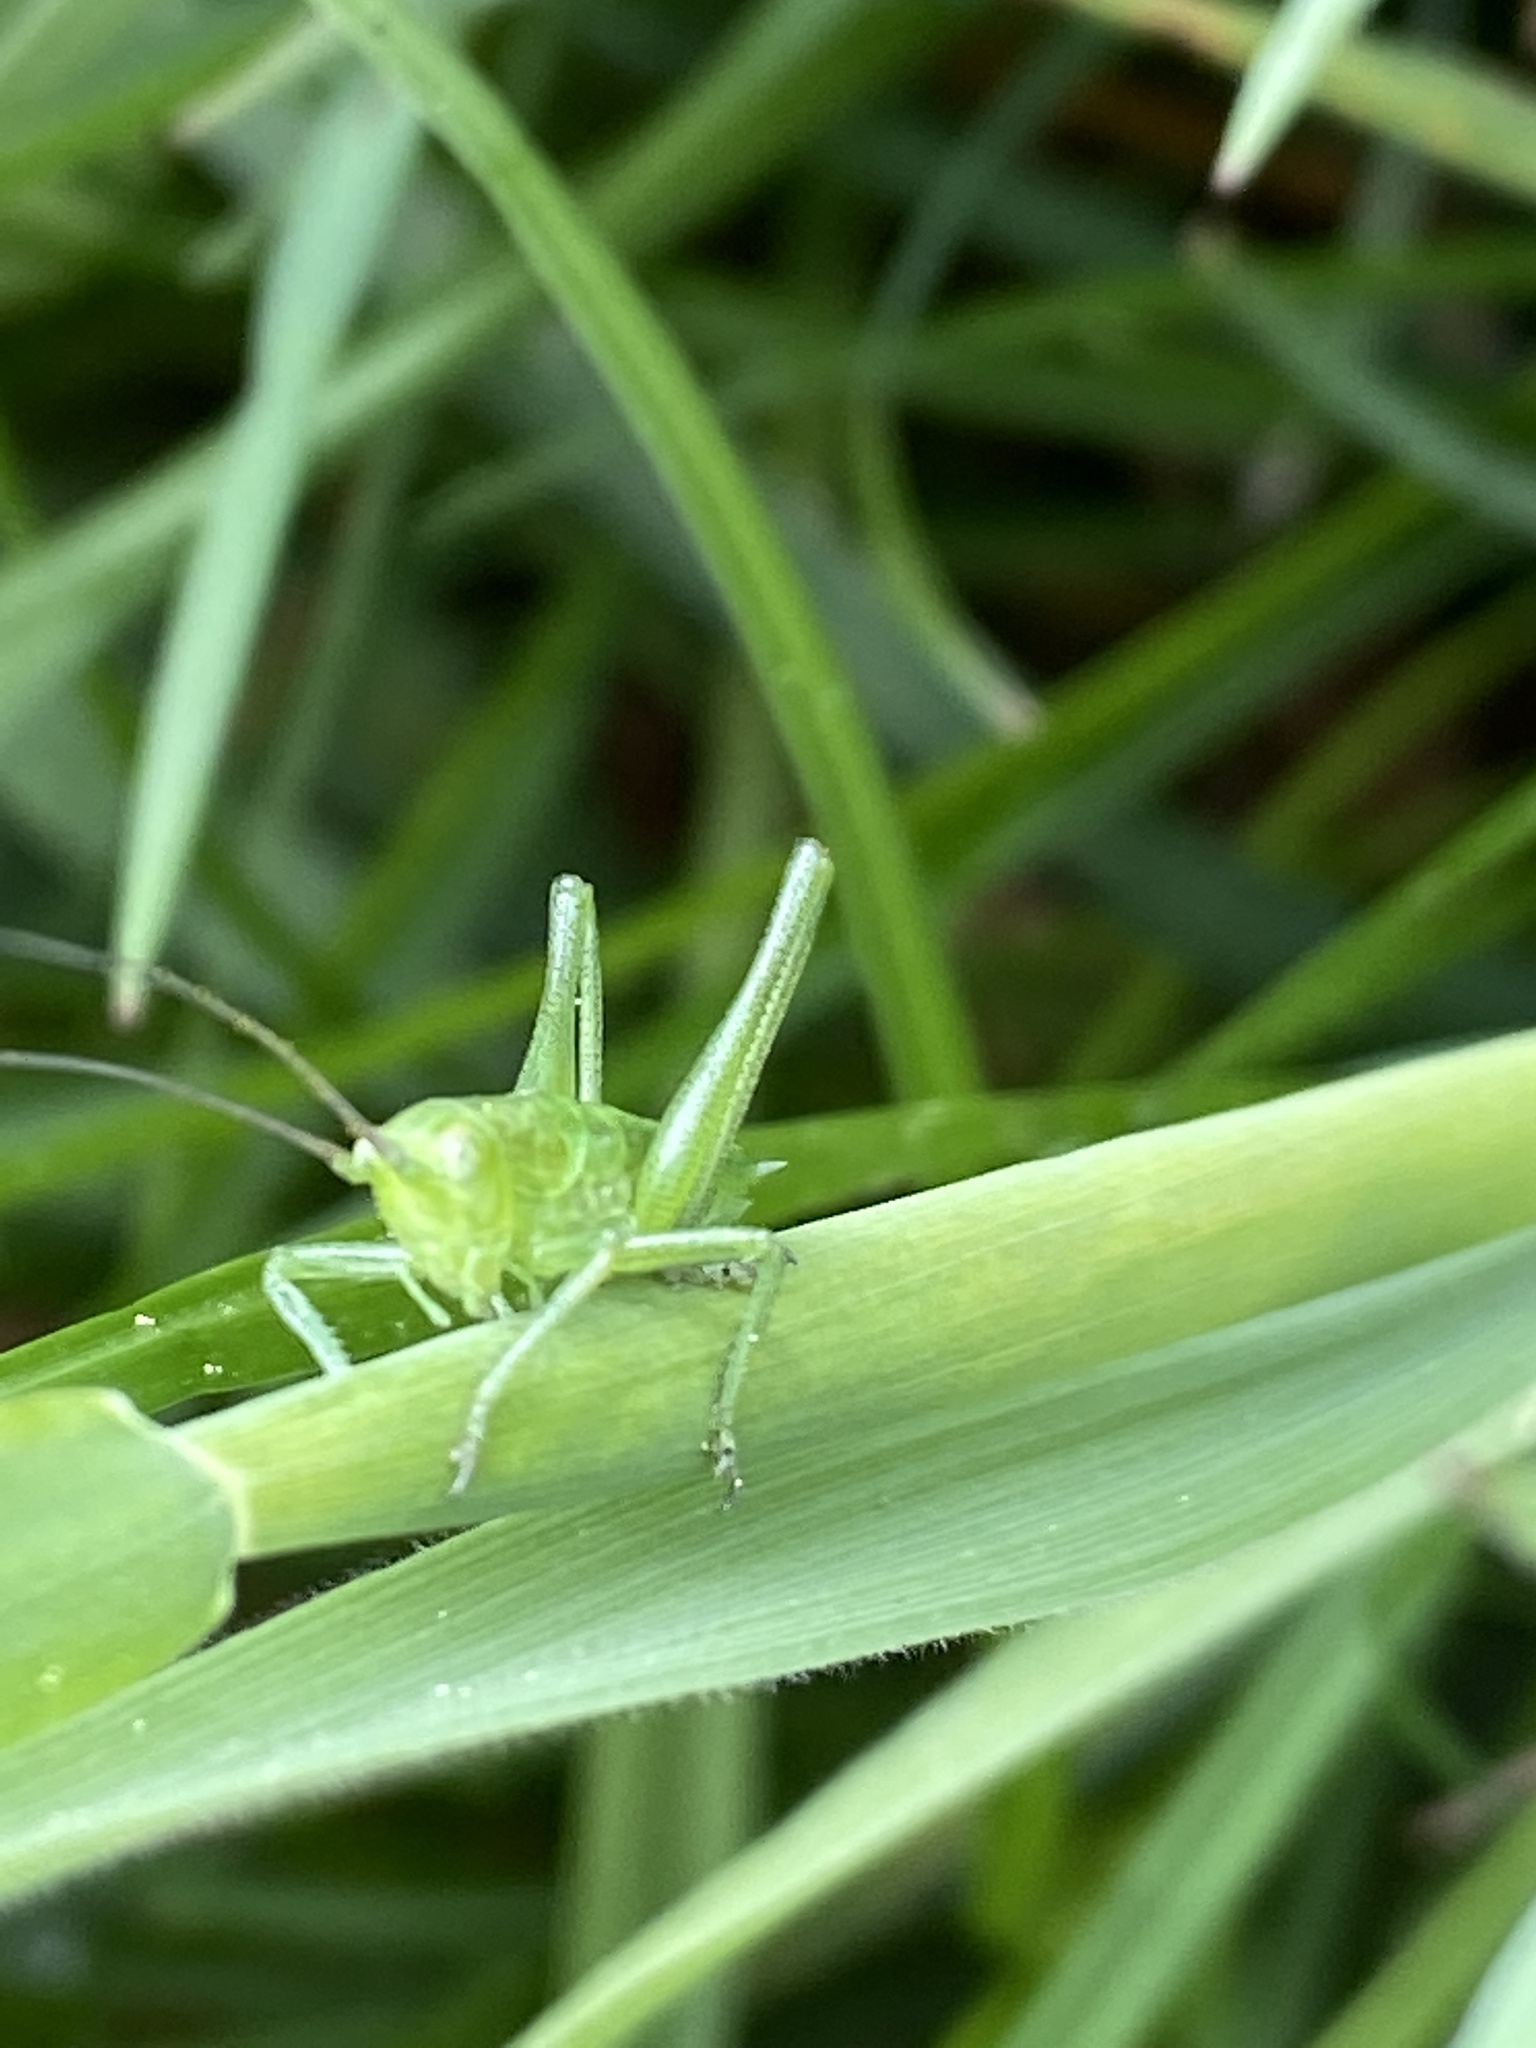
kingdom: Animalia
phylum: Arthropoda
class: Insecta
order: Orthoptera
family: Tettigoniidae
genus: Tettigonia
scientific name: Tettigonia viridissima
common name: Great green bush-cricket
